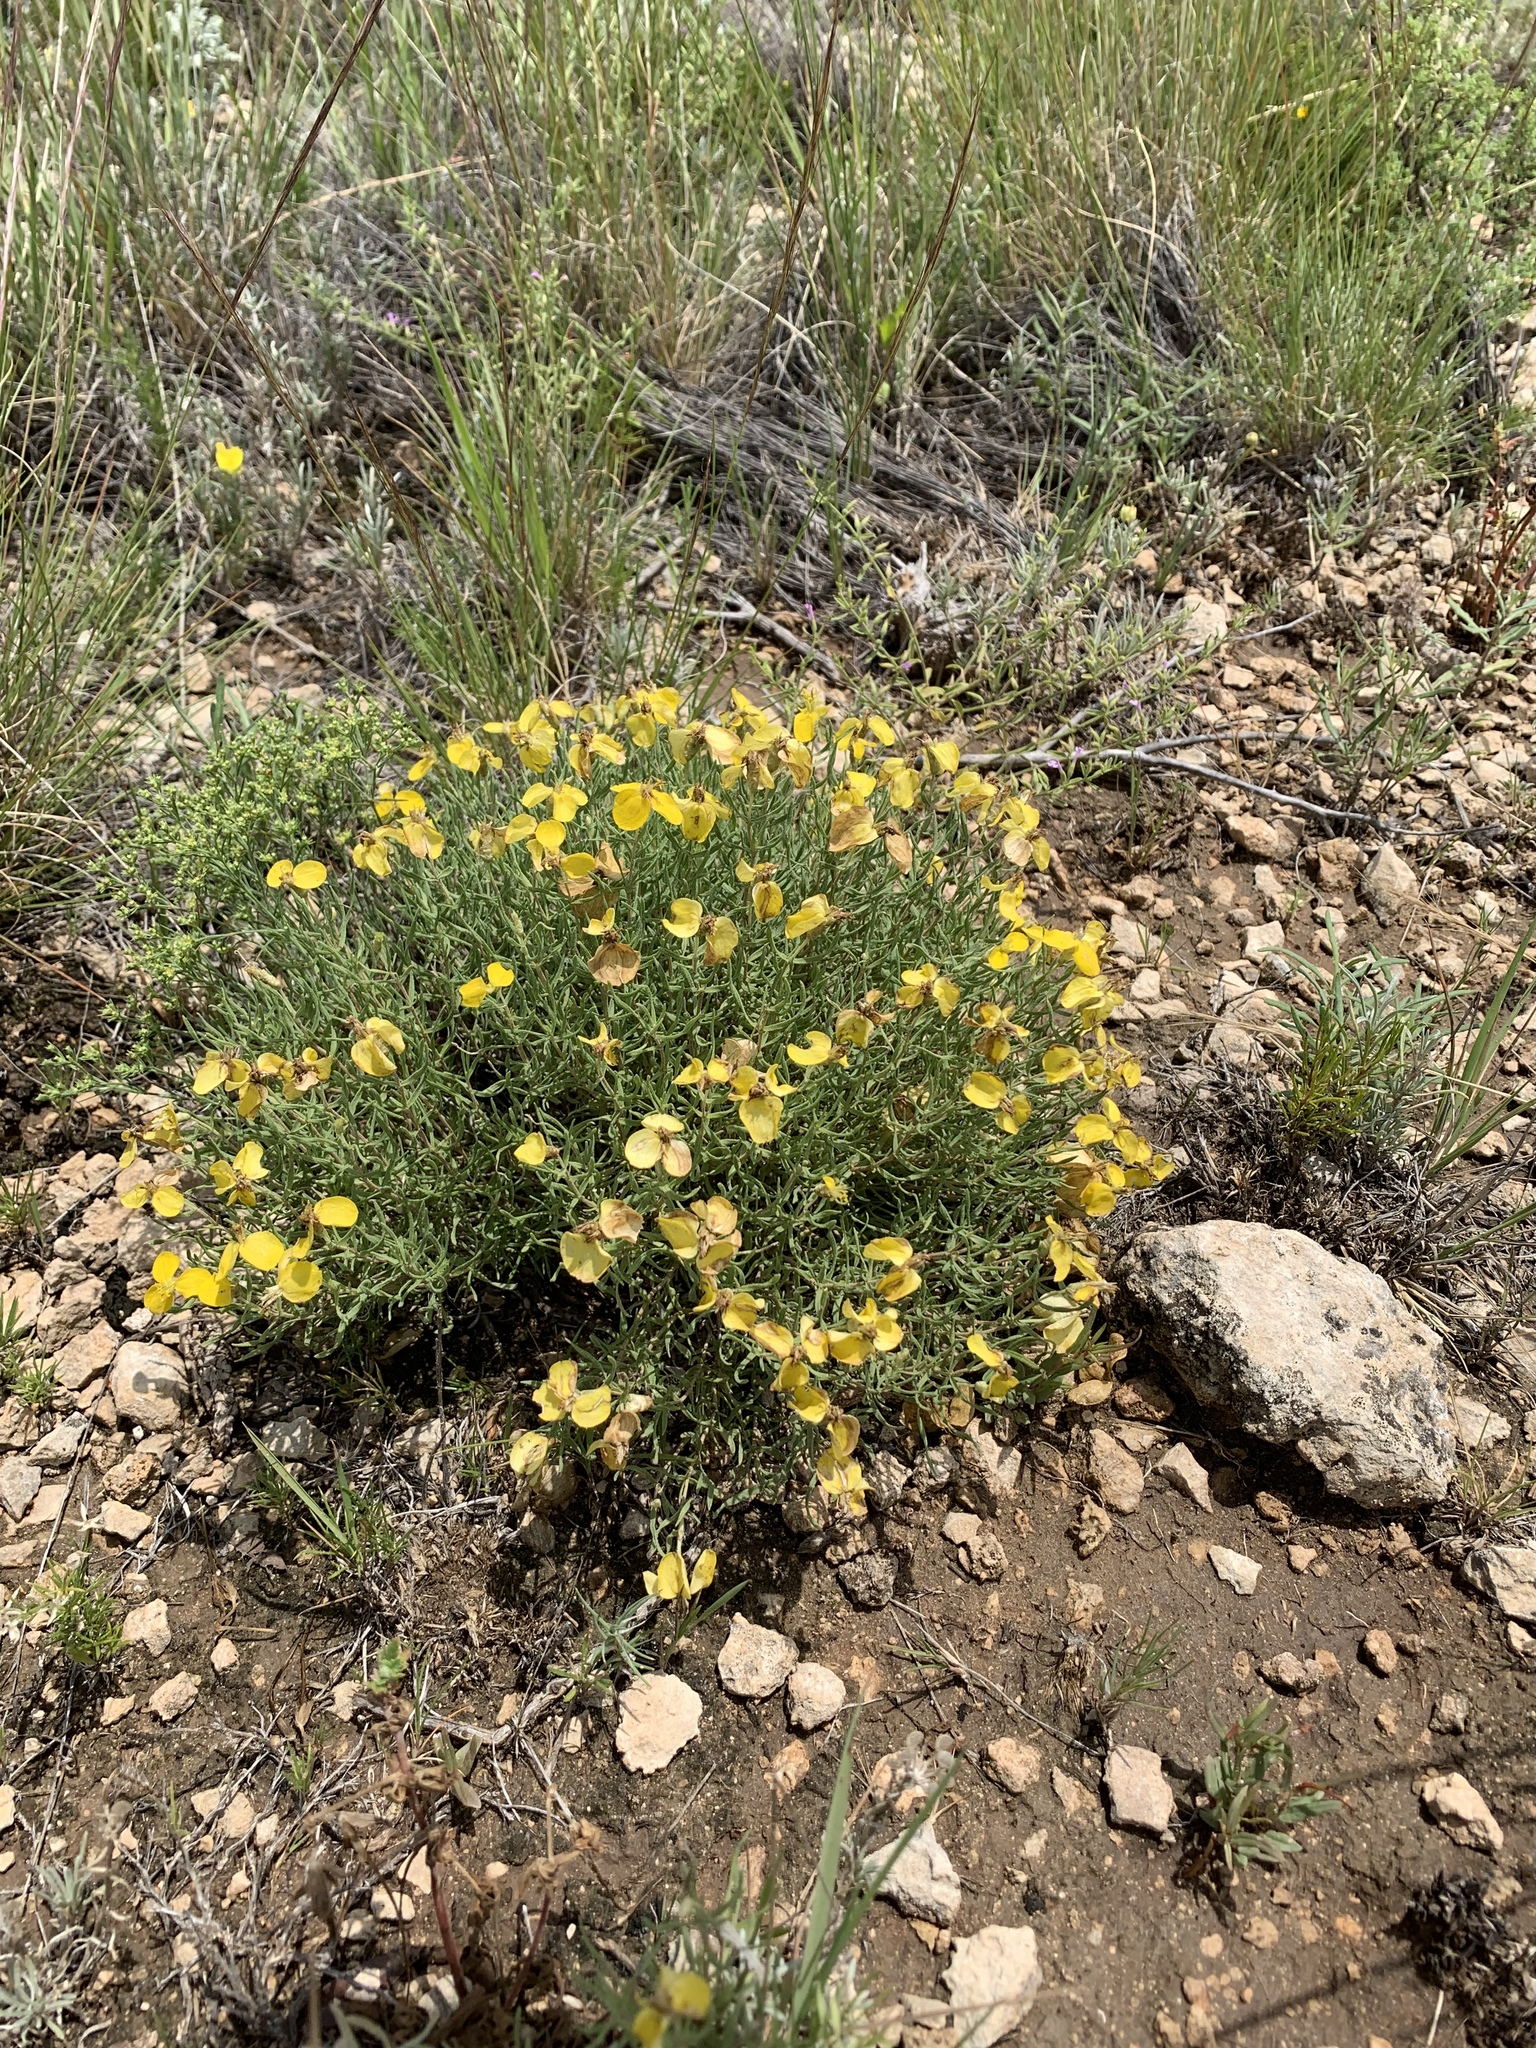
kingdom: Plantae
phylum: Tracheophyta
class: Magnoliopsida
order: Asterales
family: Asteraceae
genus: Zinnia
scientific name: Zinnia grandiflora
